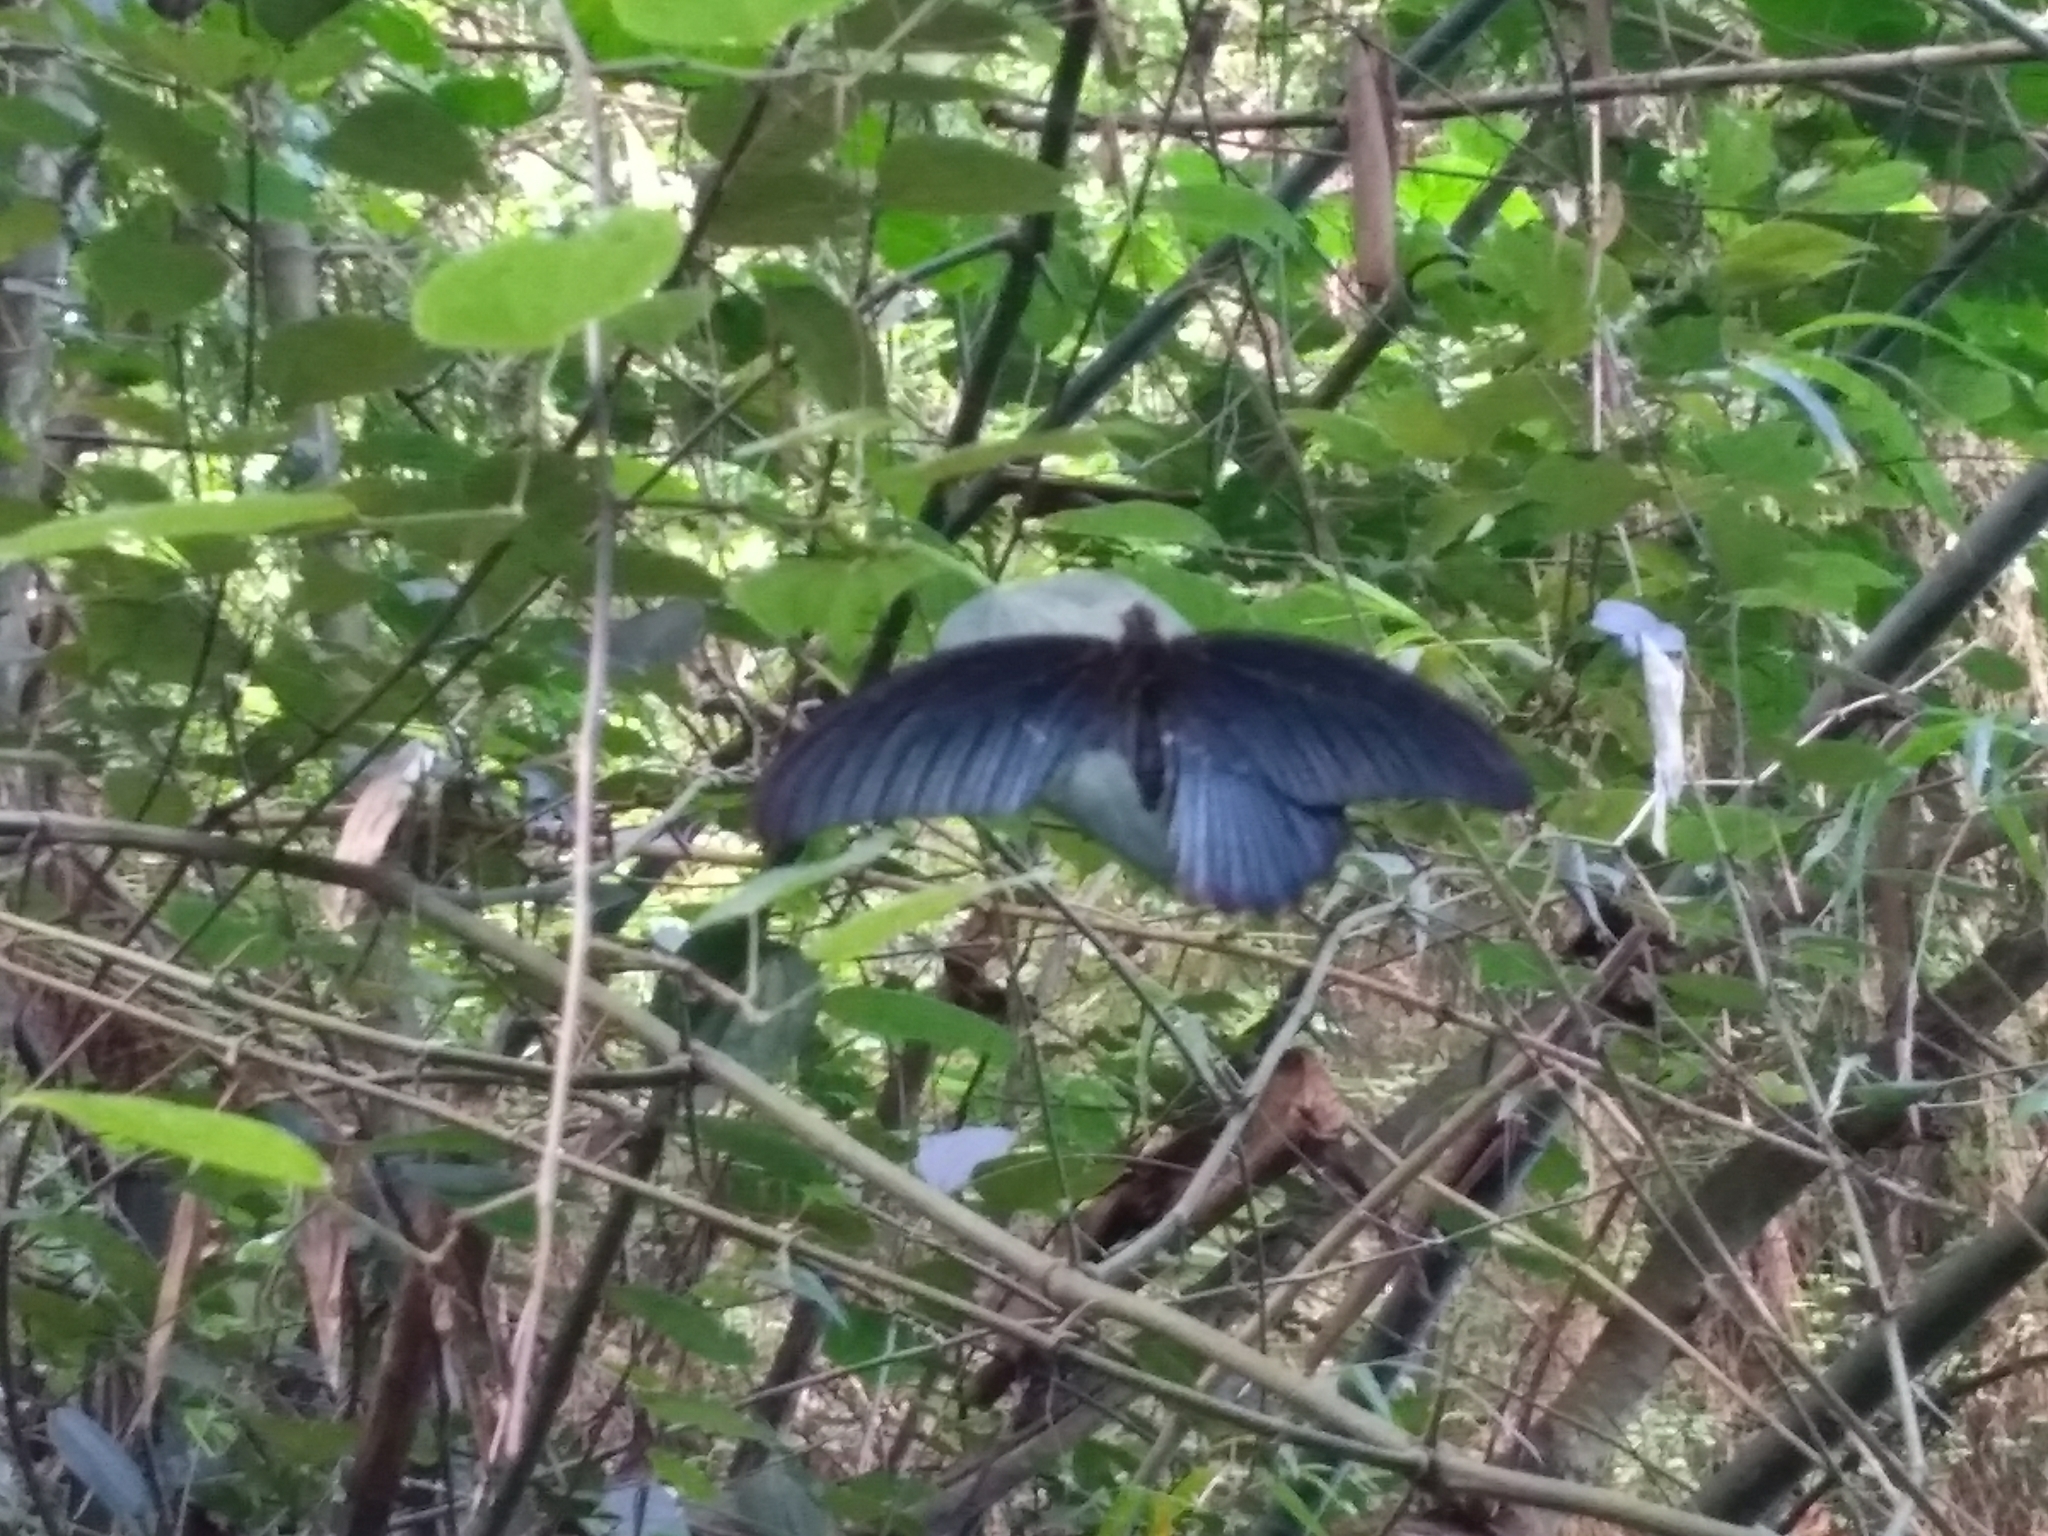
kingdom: Animalia
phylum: Arthropoda
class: Insecta
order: Lepidoptera
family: Papilionidae
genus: Papilio
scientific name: Papilio memnon
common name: Great mormon
